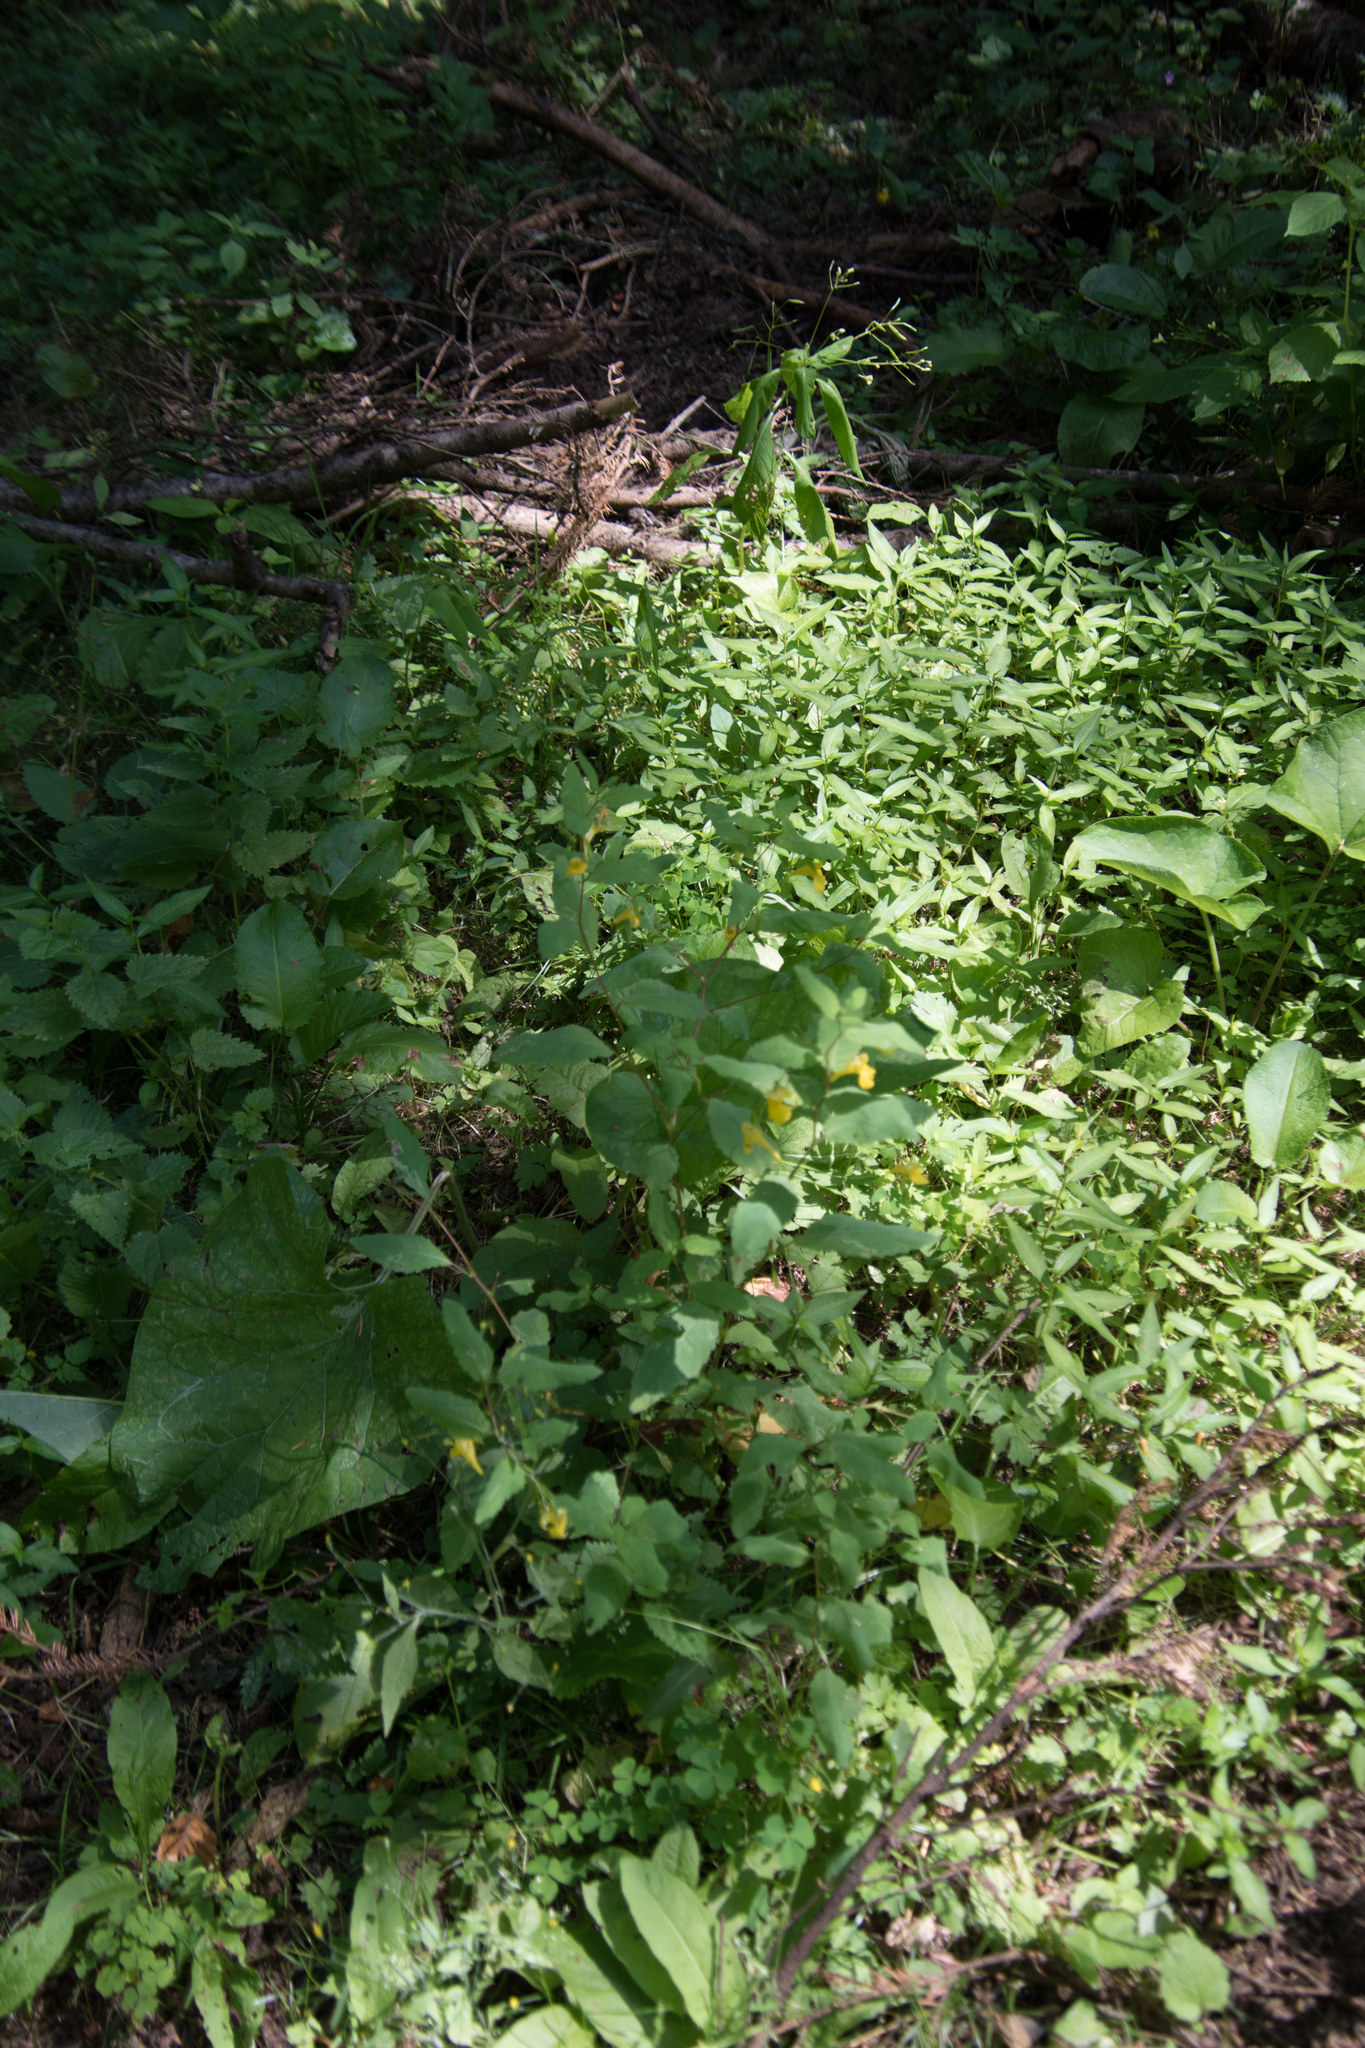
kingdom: Plantae
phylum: Tracheophyta
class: Magnoliopsida
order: Ericales
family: Balsaminaceae
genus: Impatiens
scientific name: Impatiens noli-tangere
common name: Touch-me-not balsam
